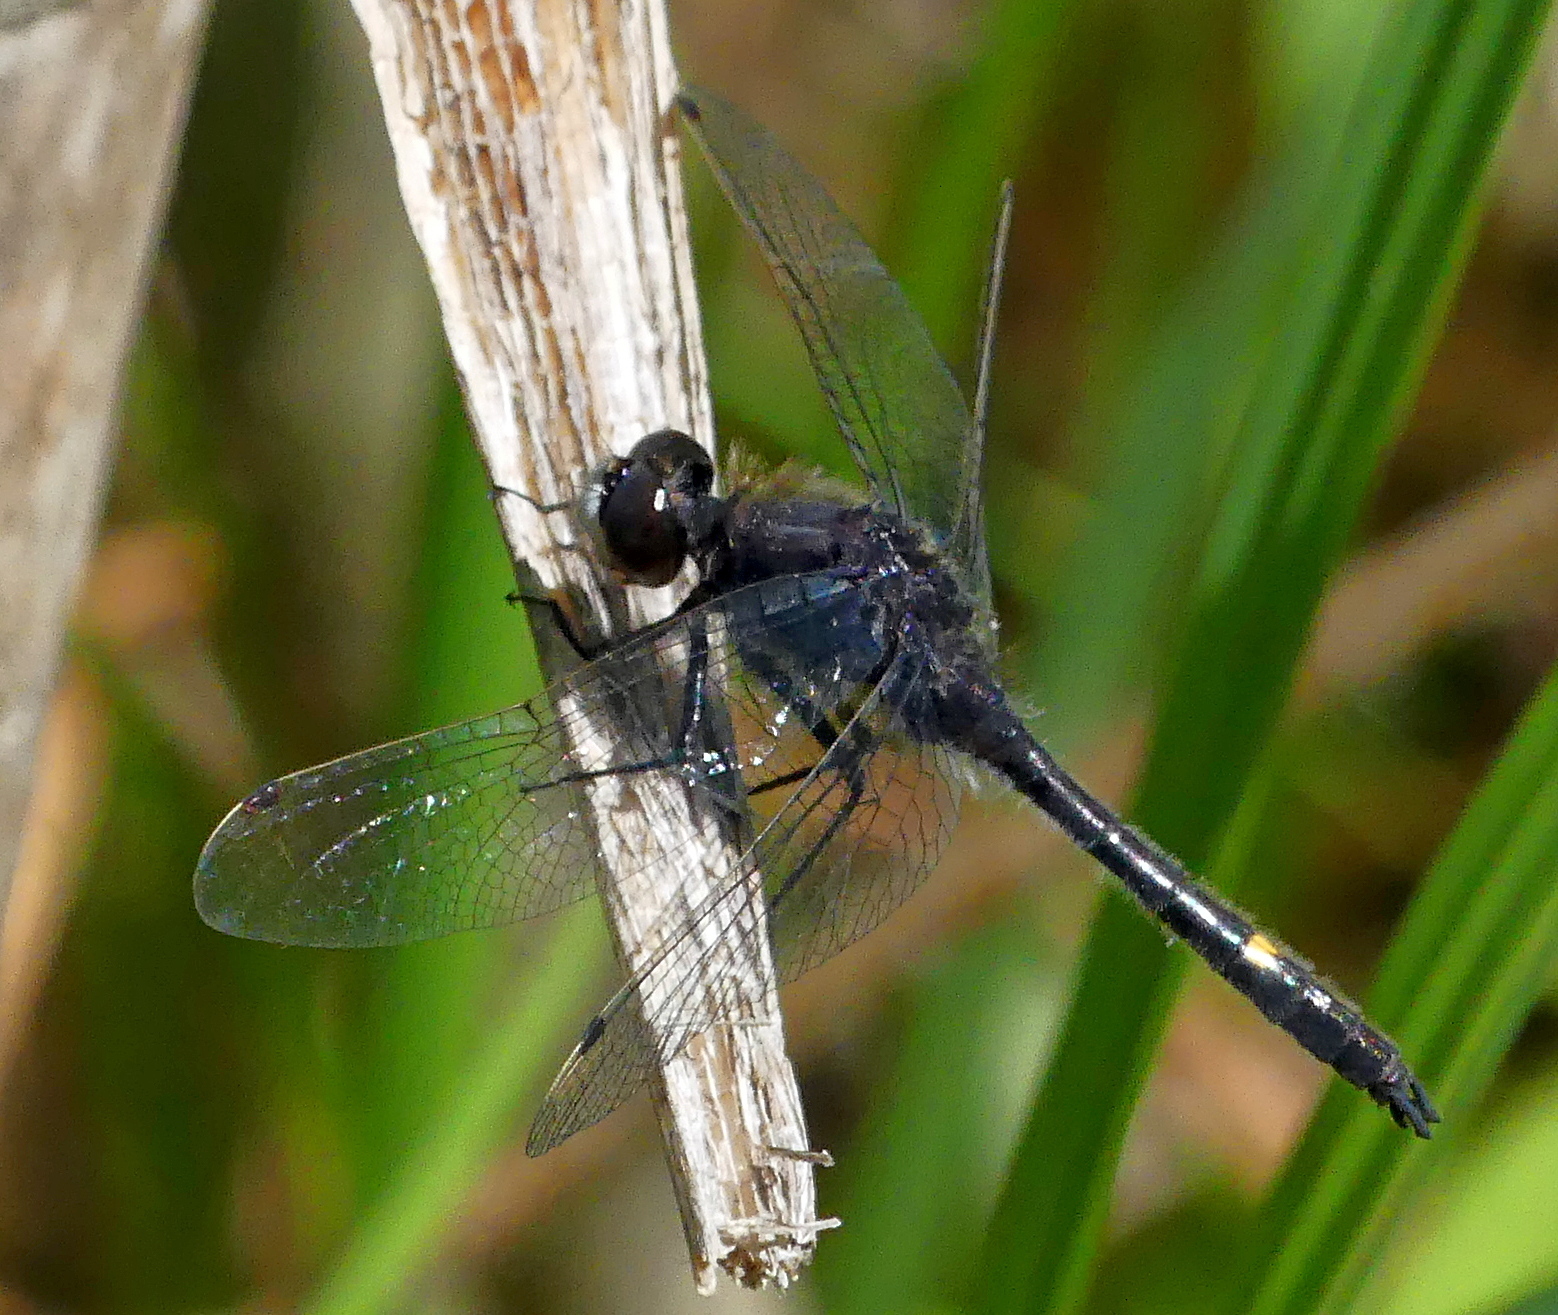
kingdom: Animalia
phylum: Arthropoda
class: Insecta
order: Odonata
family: Libellulidae
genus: Leucorrhinia
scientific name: Leucorrhinia intacta
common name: Dot-tailed whiteface
